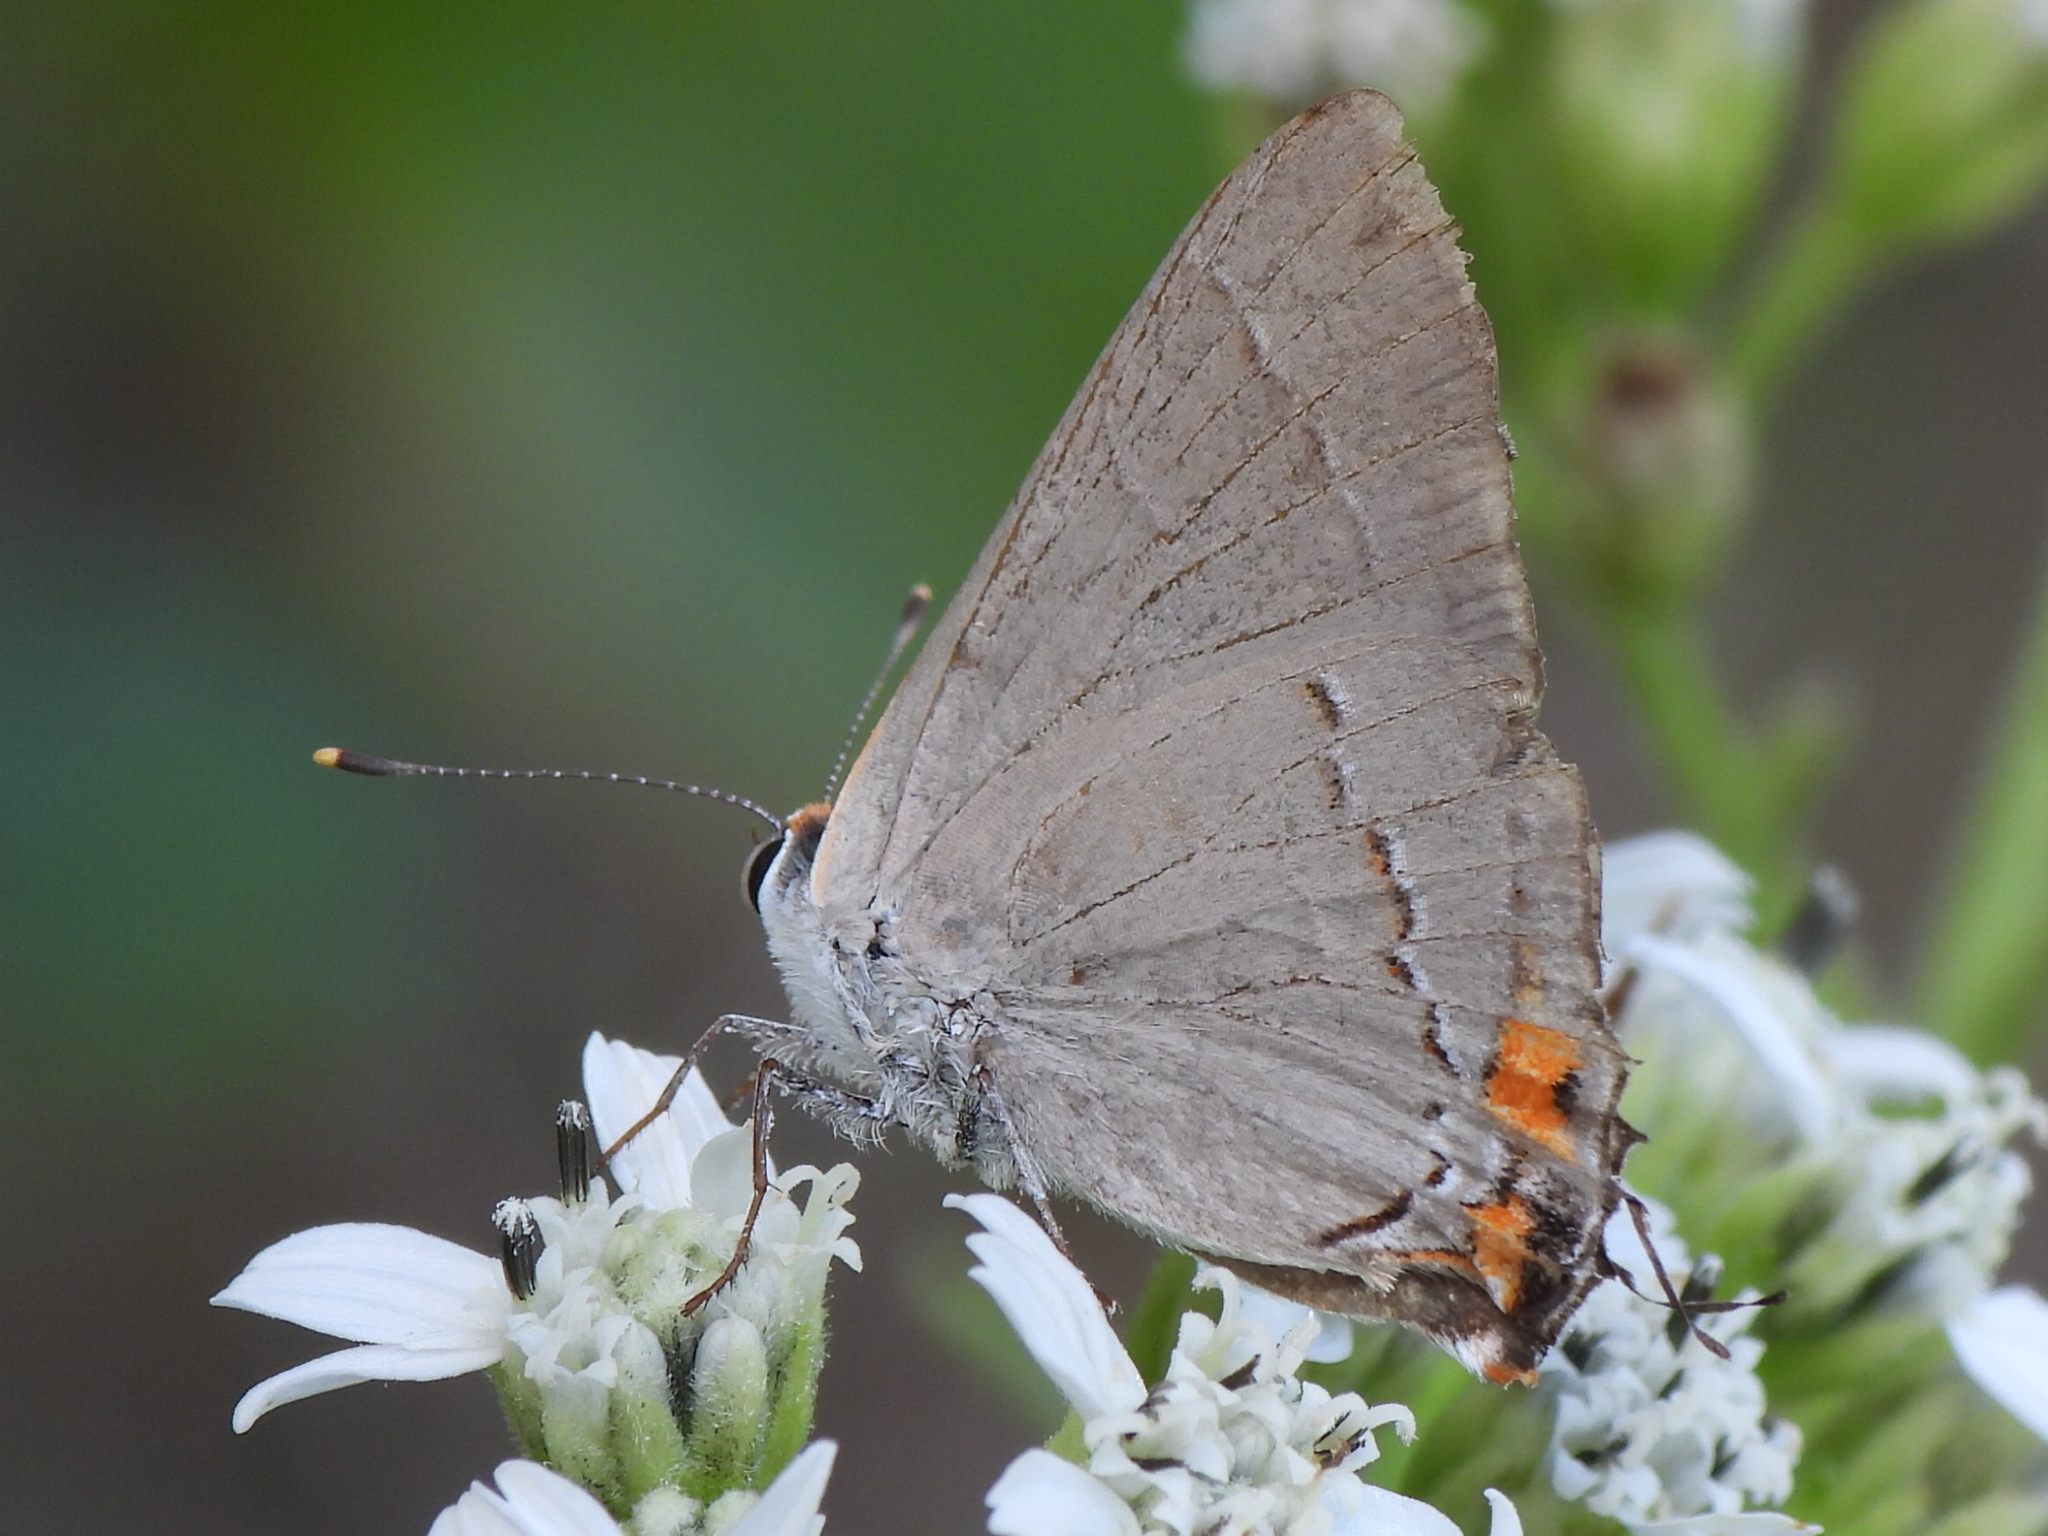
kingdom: Animalia
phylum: Arthropoda
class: Insecta
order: Lepidoptera
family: Lycaenidae
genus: Strymon
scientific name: Strymon melinus
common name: Gray hairstreak
